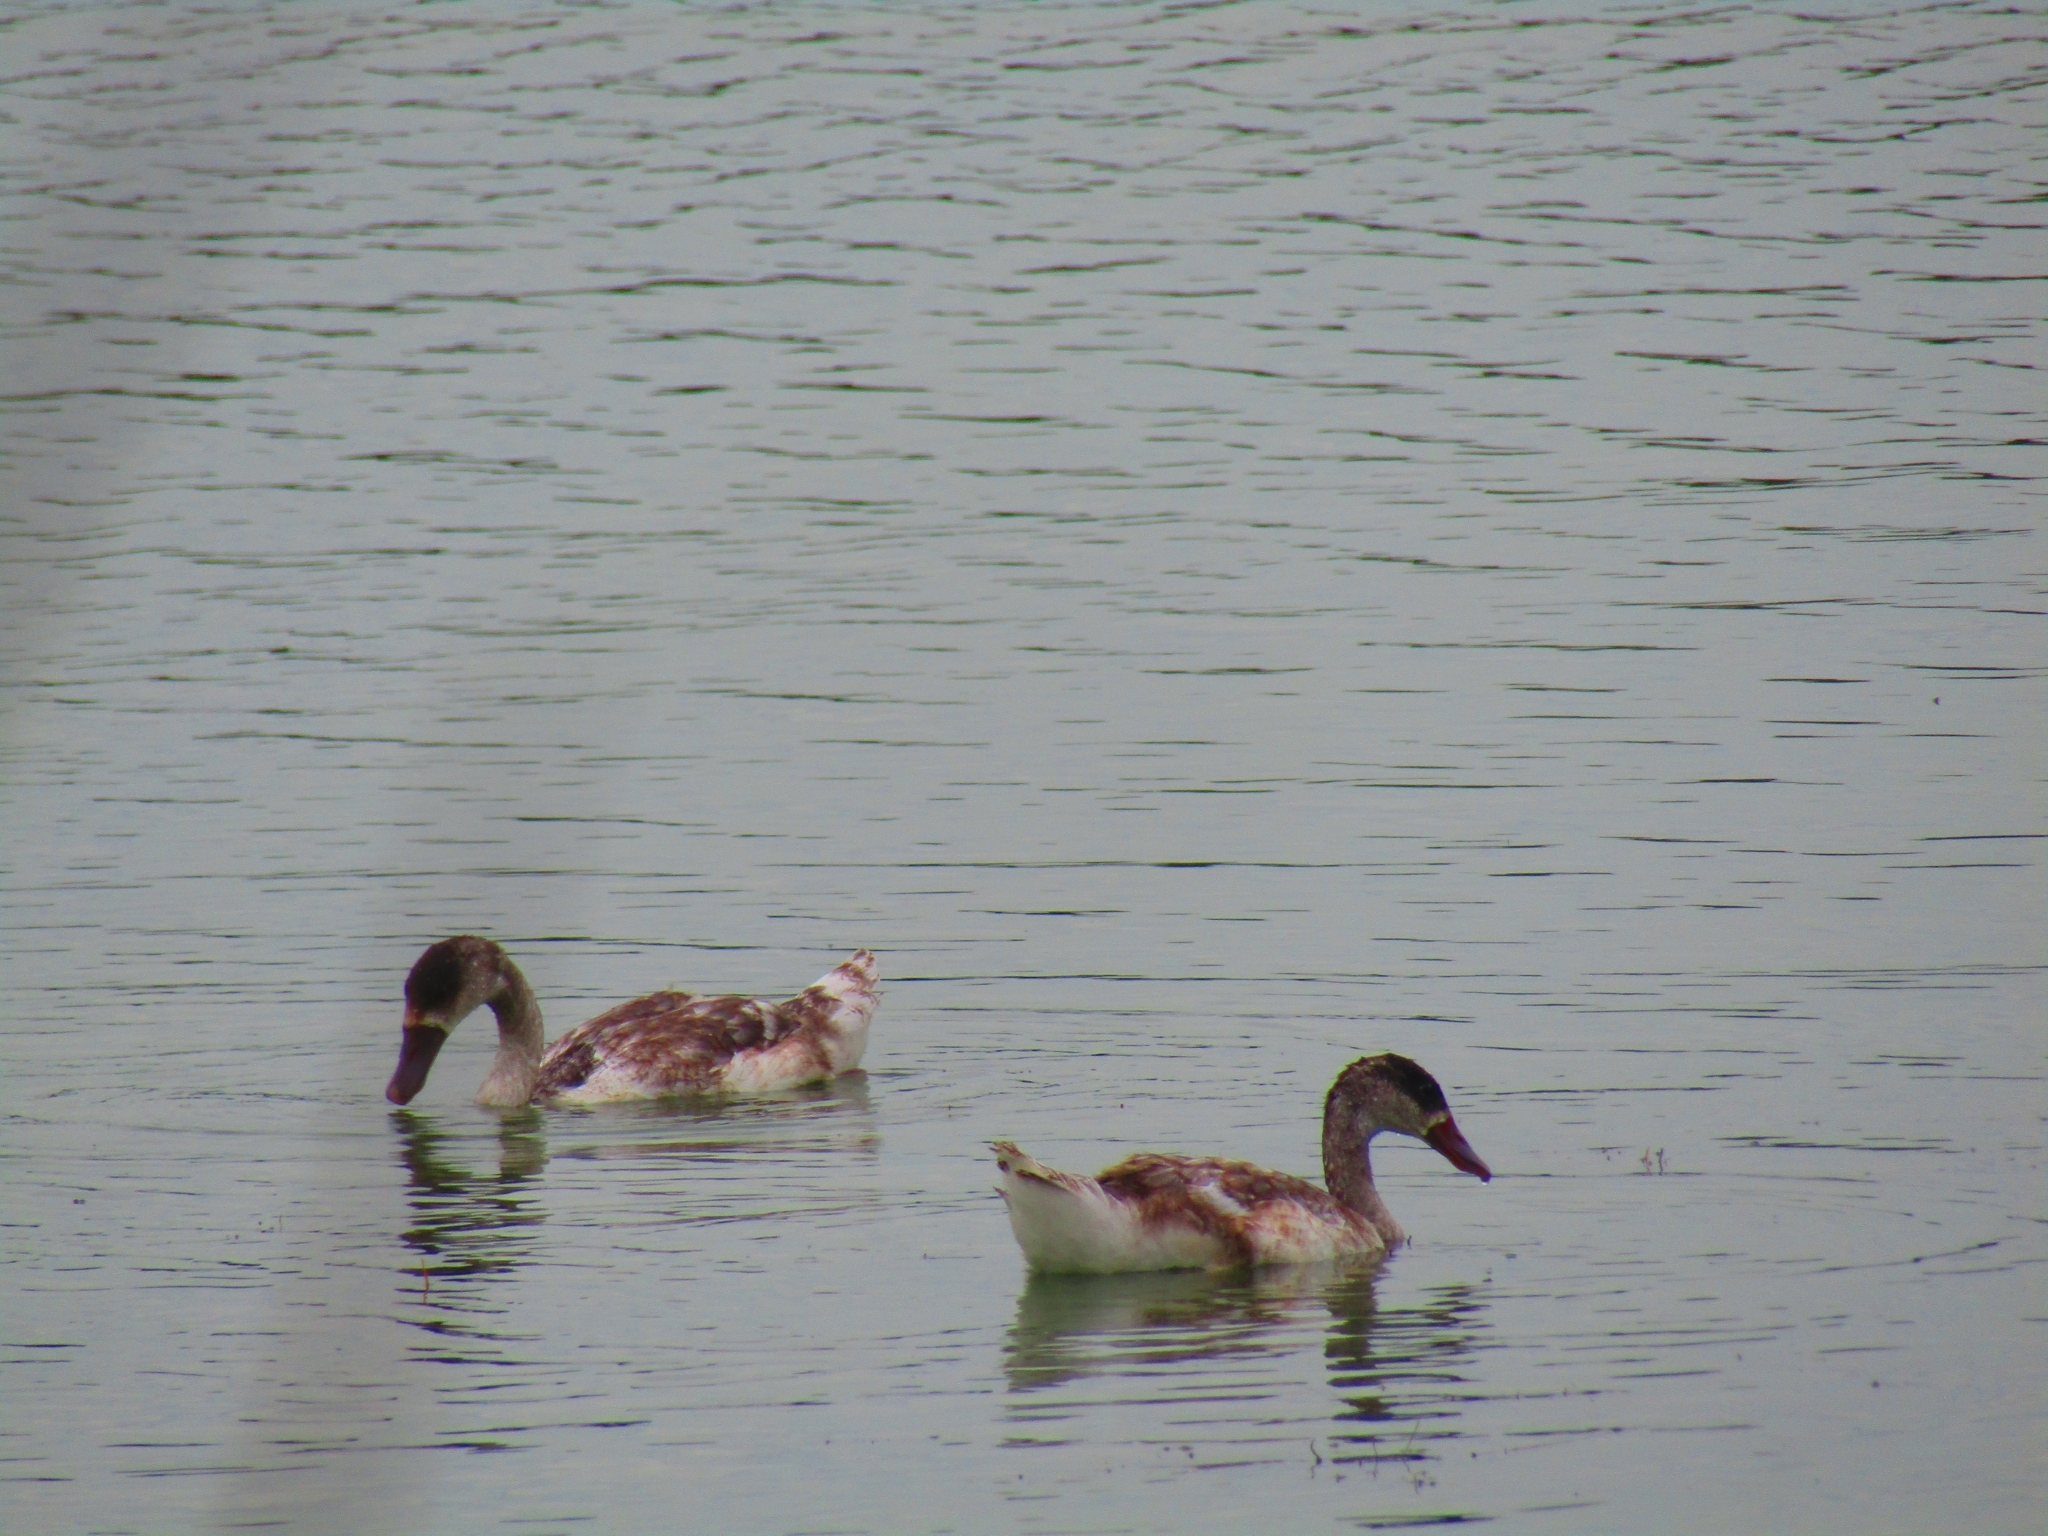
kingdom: Animalia
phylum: Chordata
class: Aves
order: Anseriformes
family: Anatidae
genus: Coscoroba
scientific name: Coscoroba coscoroba
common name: Coscoroba swan
